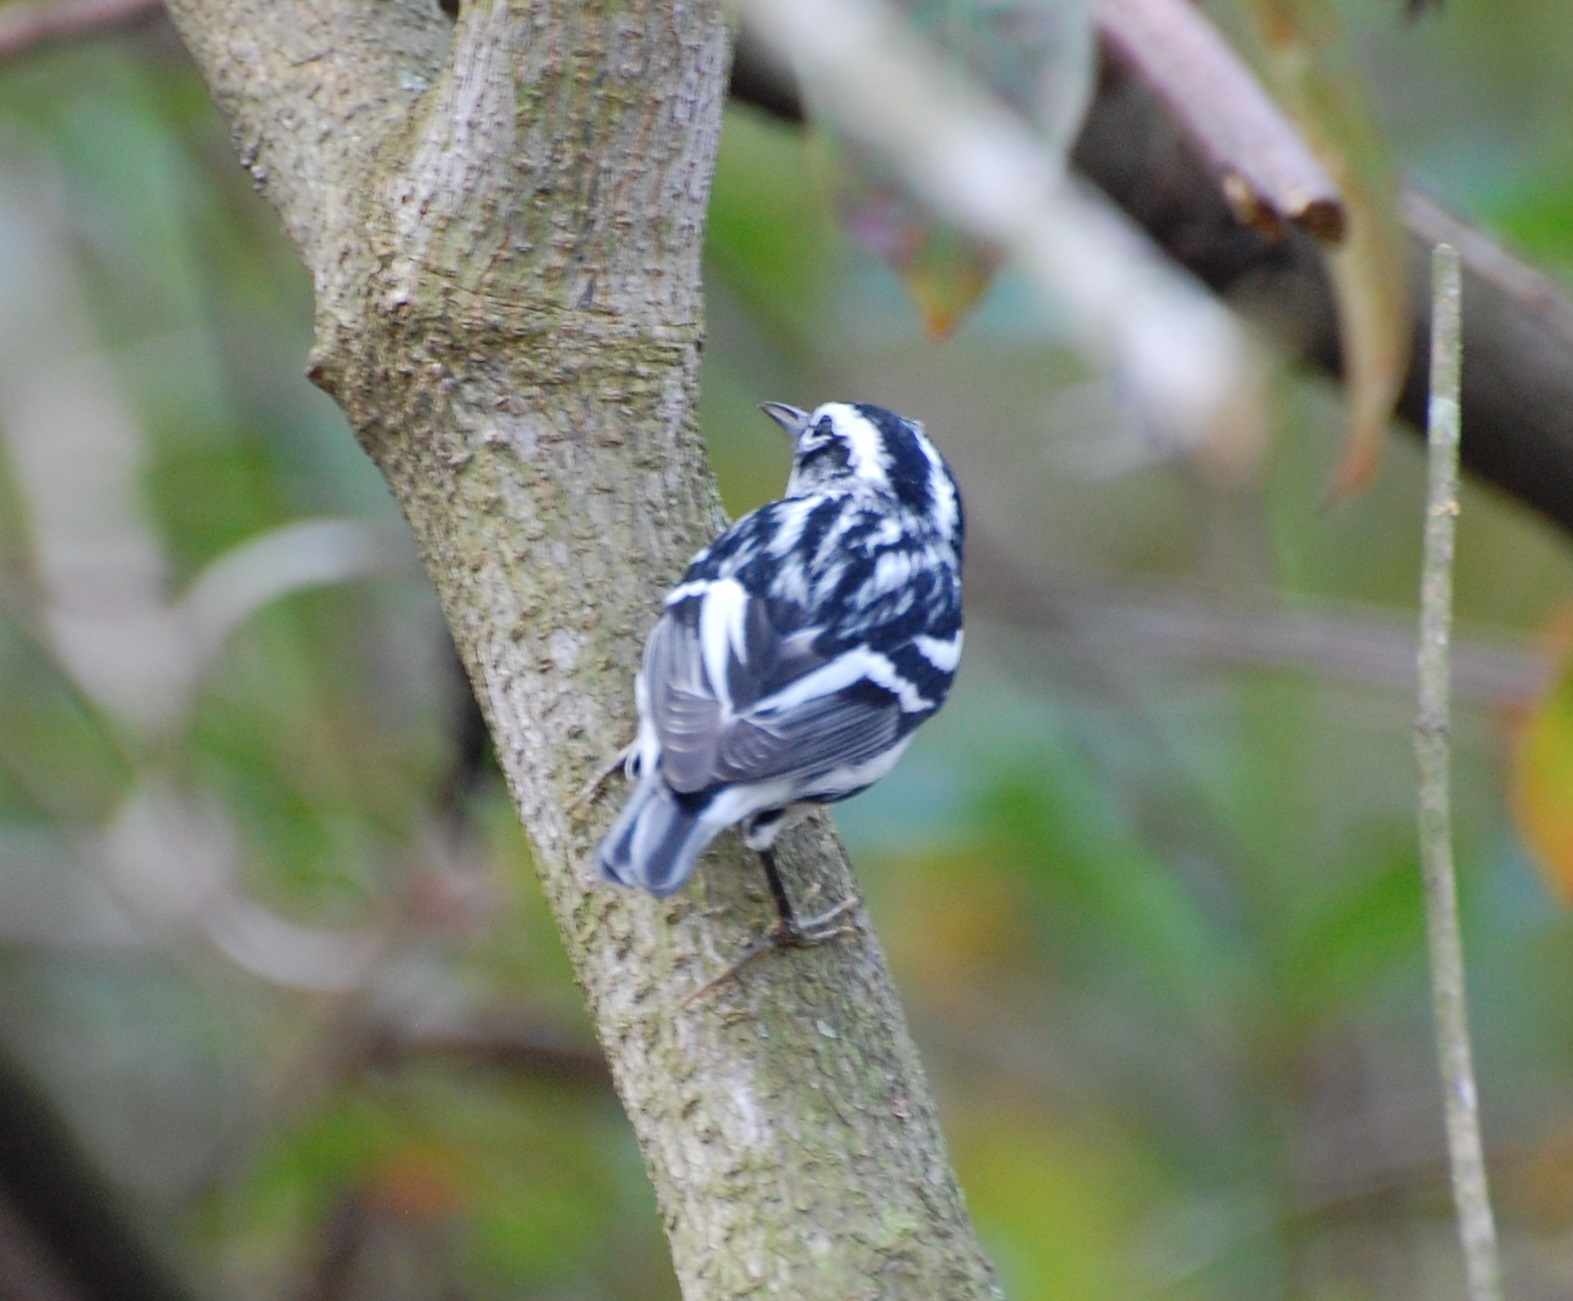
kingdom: Animalia
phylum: Chordata
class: Aves
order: Passeriformes
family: Parulidae
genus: Mniotilta
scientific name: Mniotilta varia
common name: Black-and-white warbler
